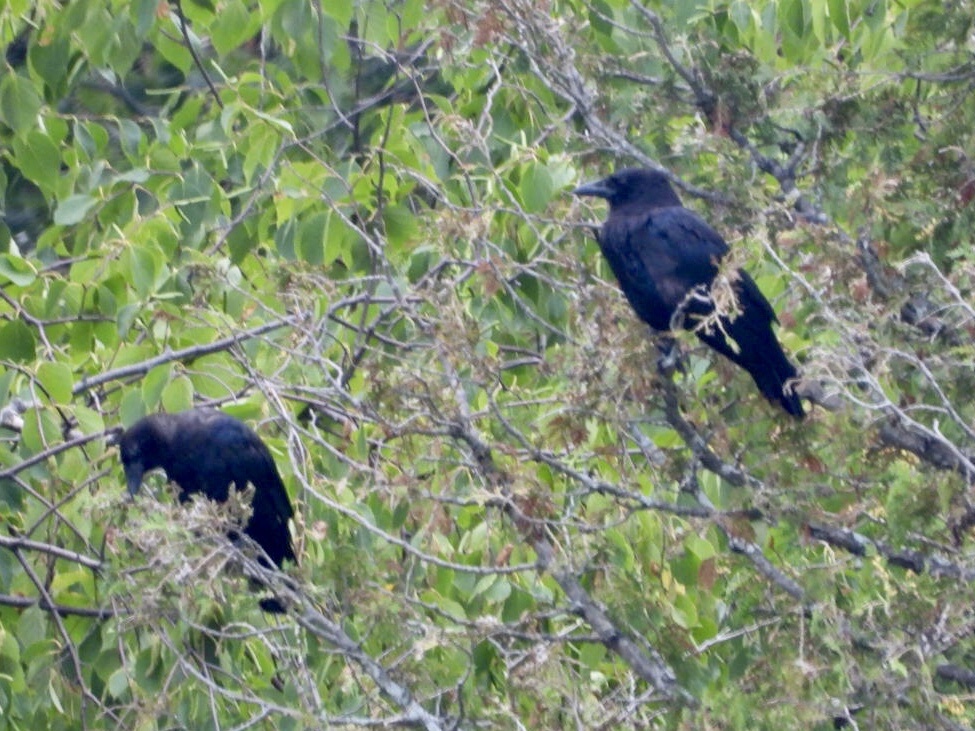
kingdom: Animalia
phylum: Chordata
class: Aves
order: Passeriformes
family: Corvidae
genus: Corvus
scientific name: Corvus brachyrhynchos
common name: American crow
